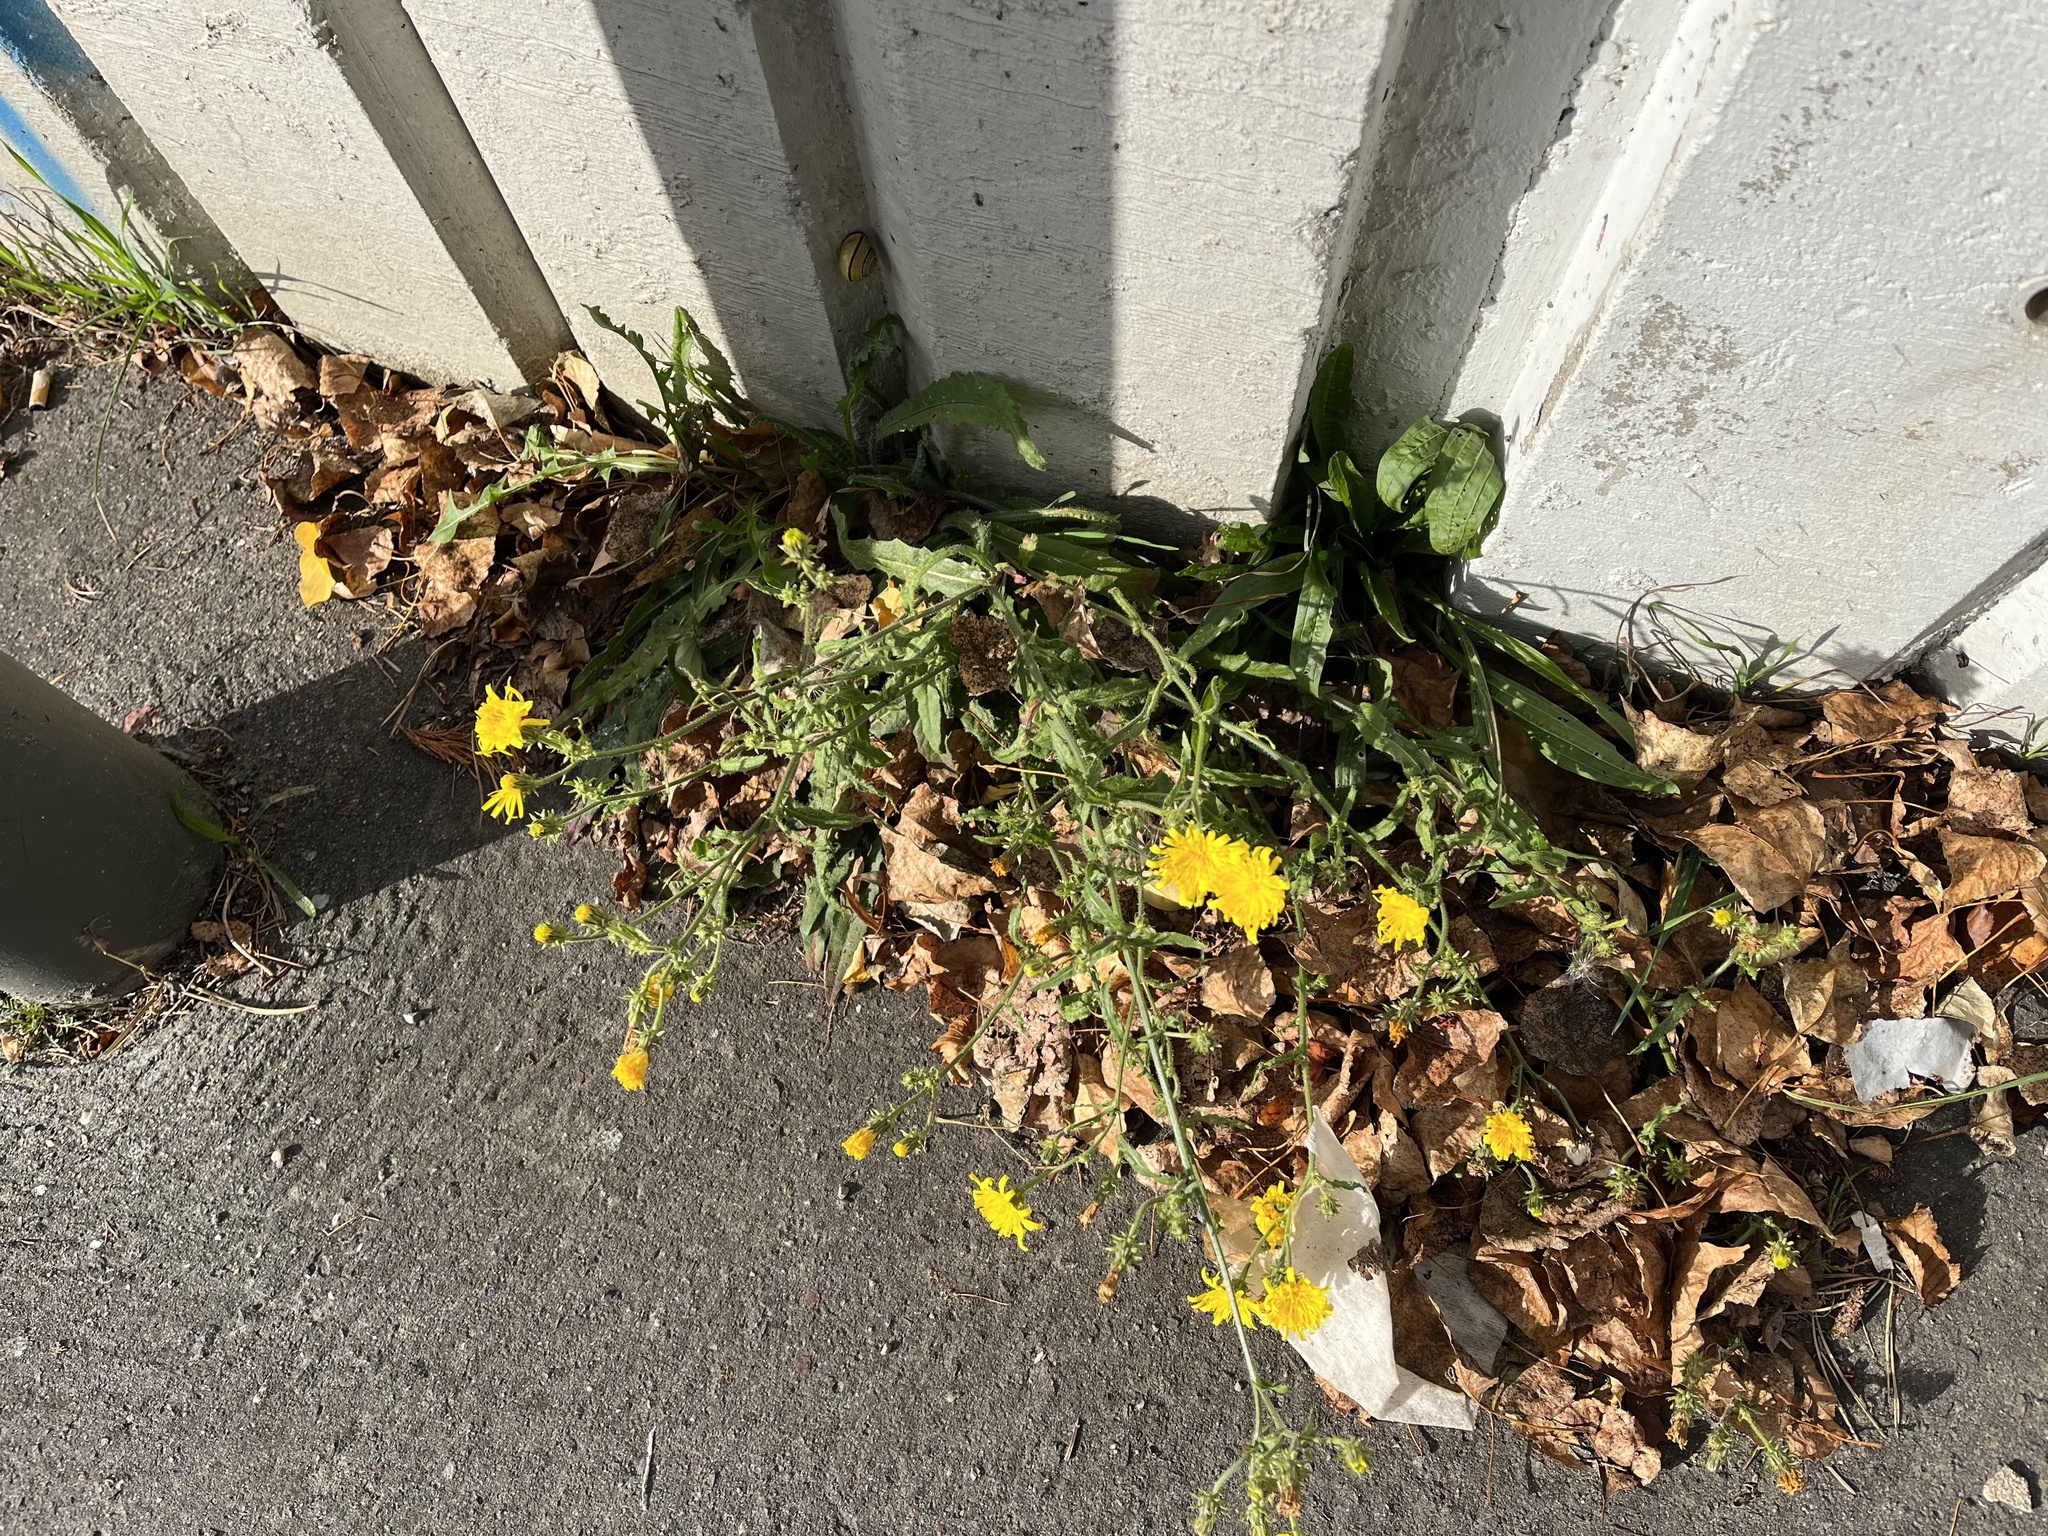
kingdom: Plantae
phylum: Tracheophyta
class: Magnoliopsida
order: Asterales
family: Asteraceae
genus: Picris
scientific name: Picris hieracioides
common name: Hawkweed oxtongue
